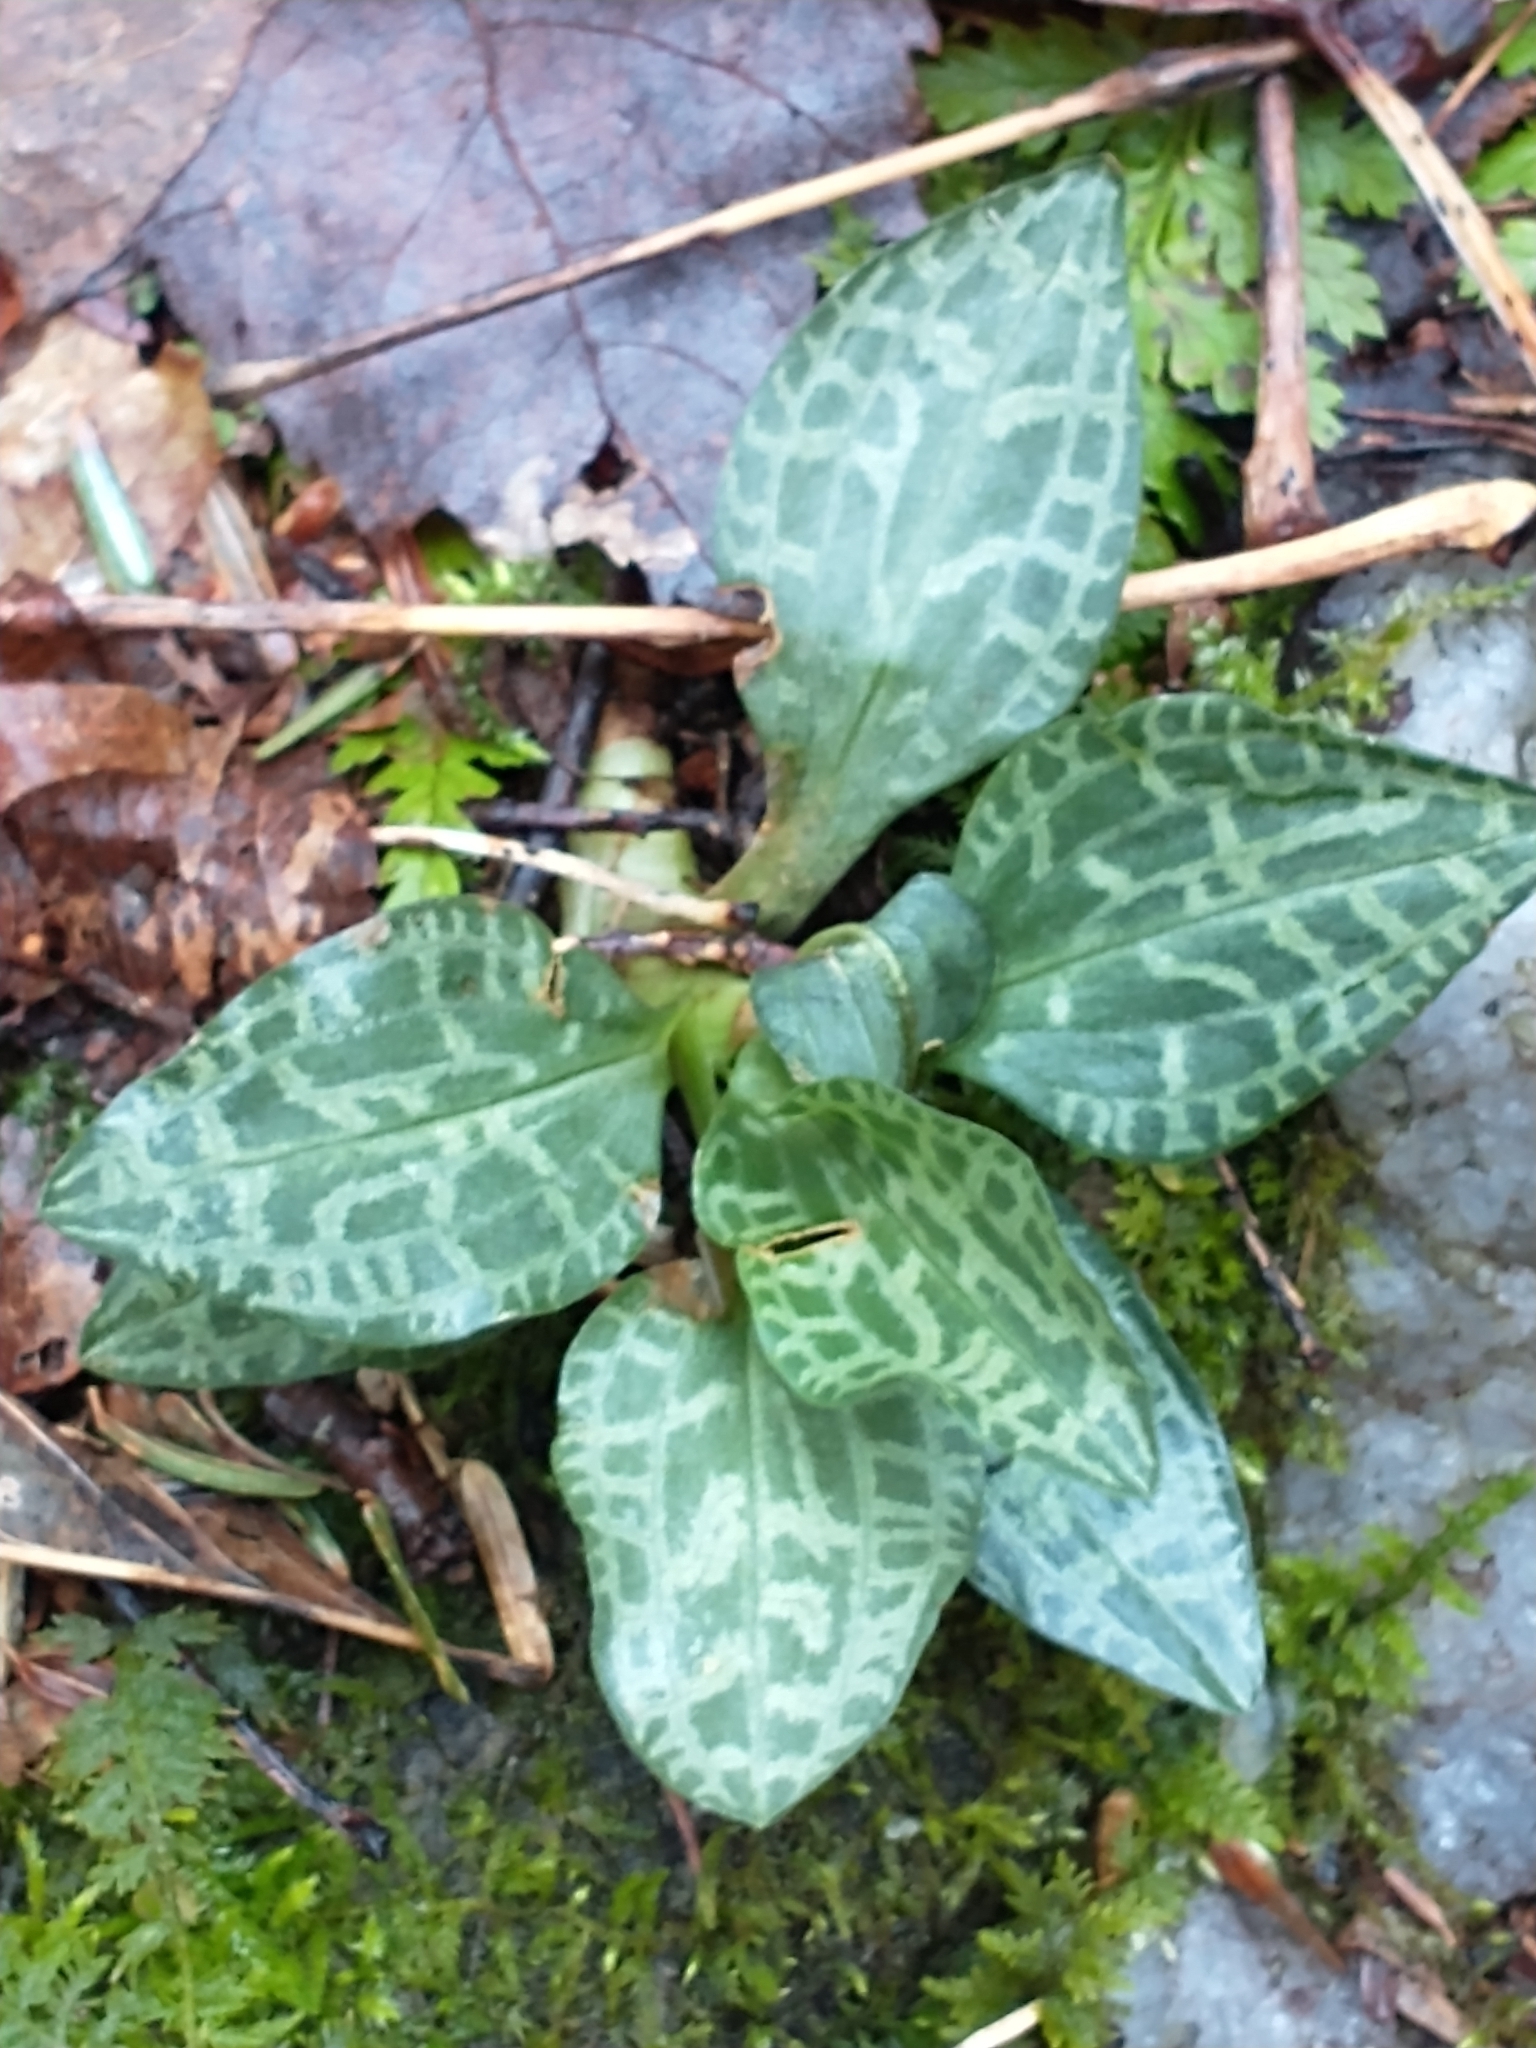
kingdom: Plantae
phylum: Tracheophyta
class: Liliopsida
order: Asparagales
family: Orchidaceae
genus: Goodyera
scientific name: Goodyera tesselata
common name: Checkered rattlesnake-plantain
